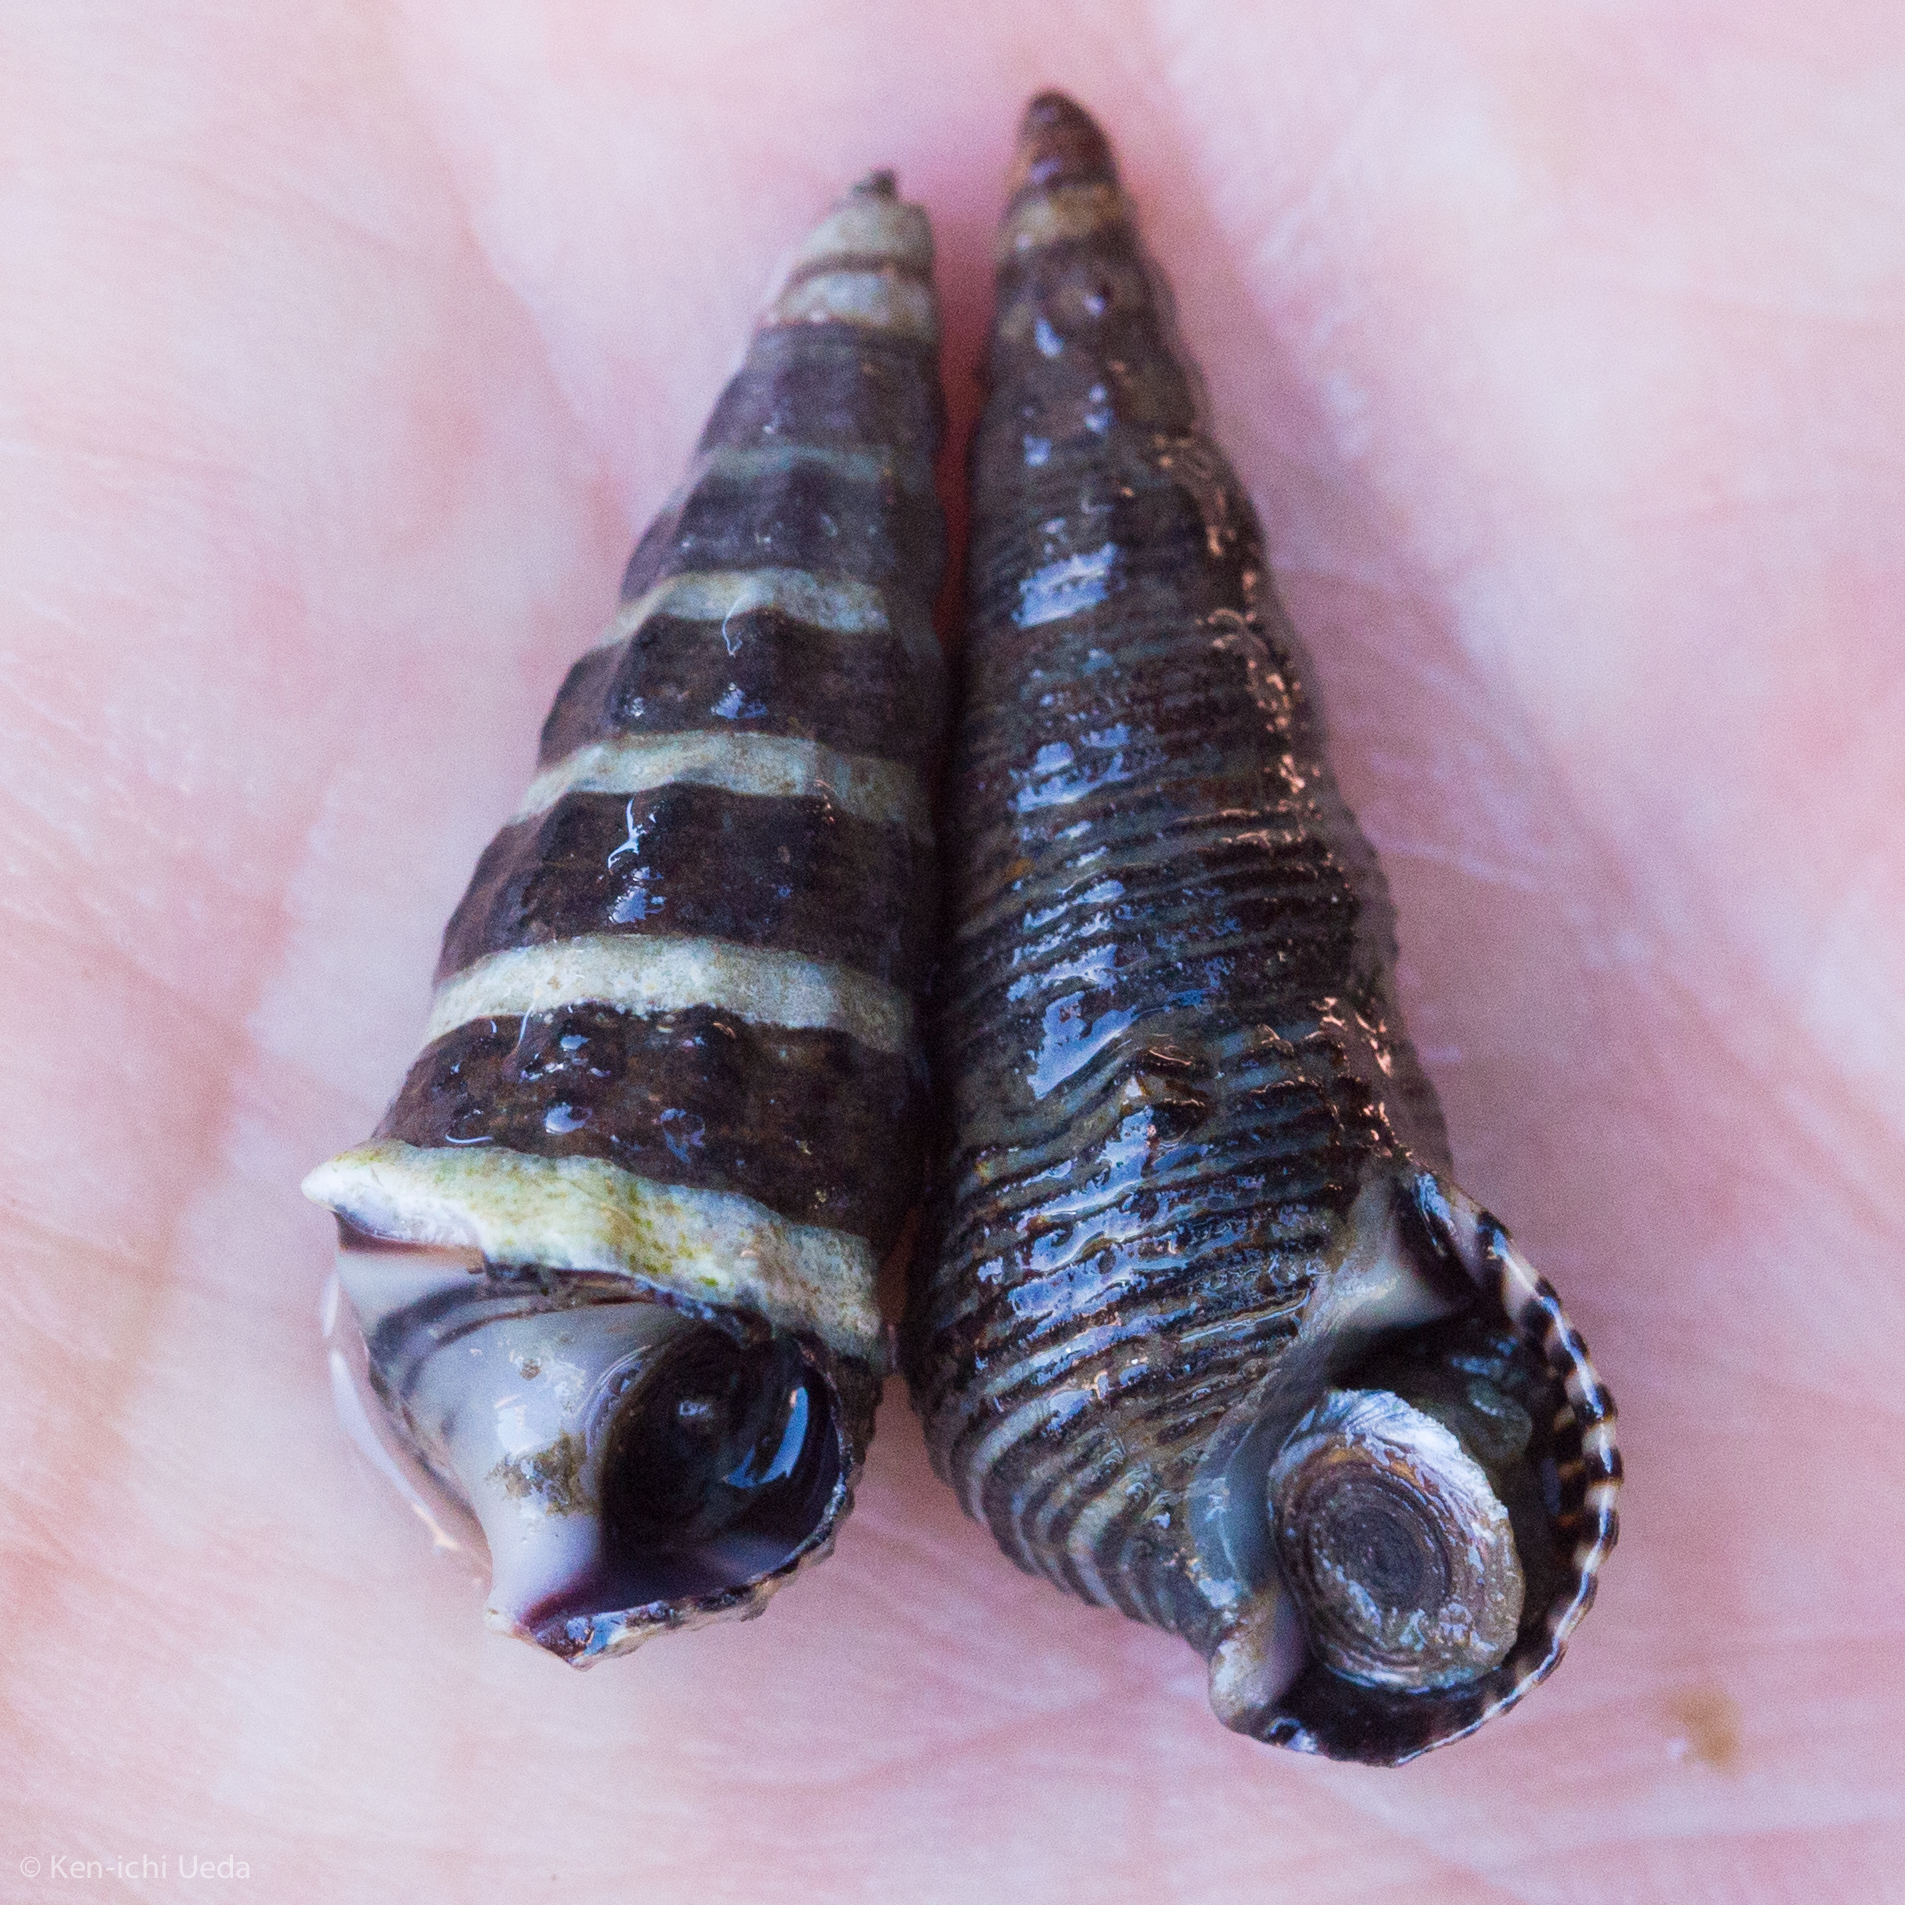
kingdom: Animalia
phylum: Mollusca
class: Gastropoda
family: Batillariidae
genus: Batillaria
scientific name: Batillaria attramentaria
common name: Japanese false cerith
